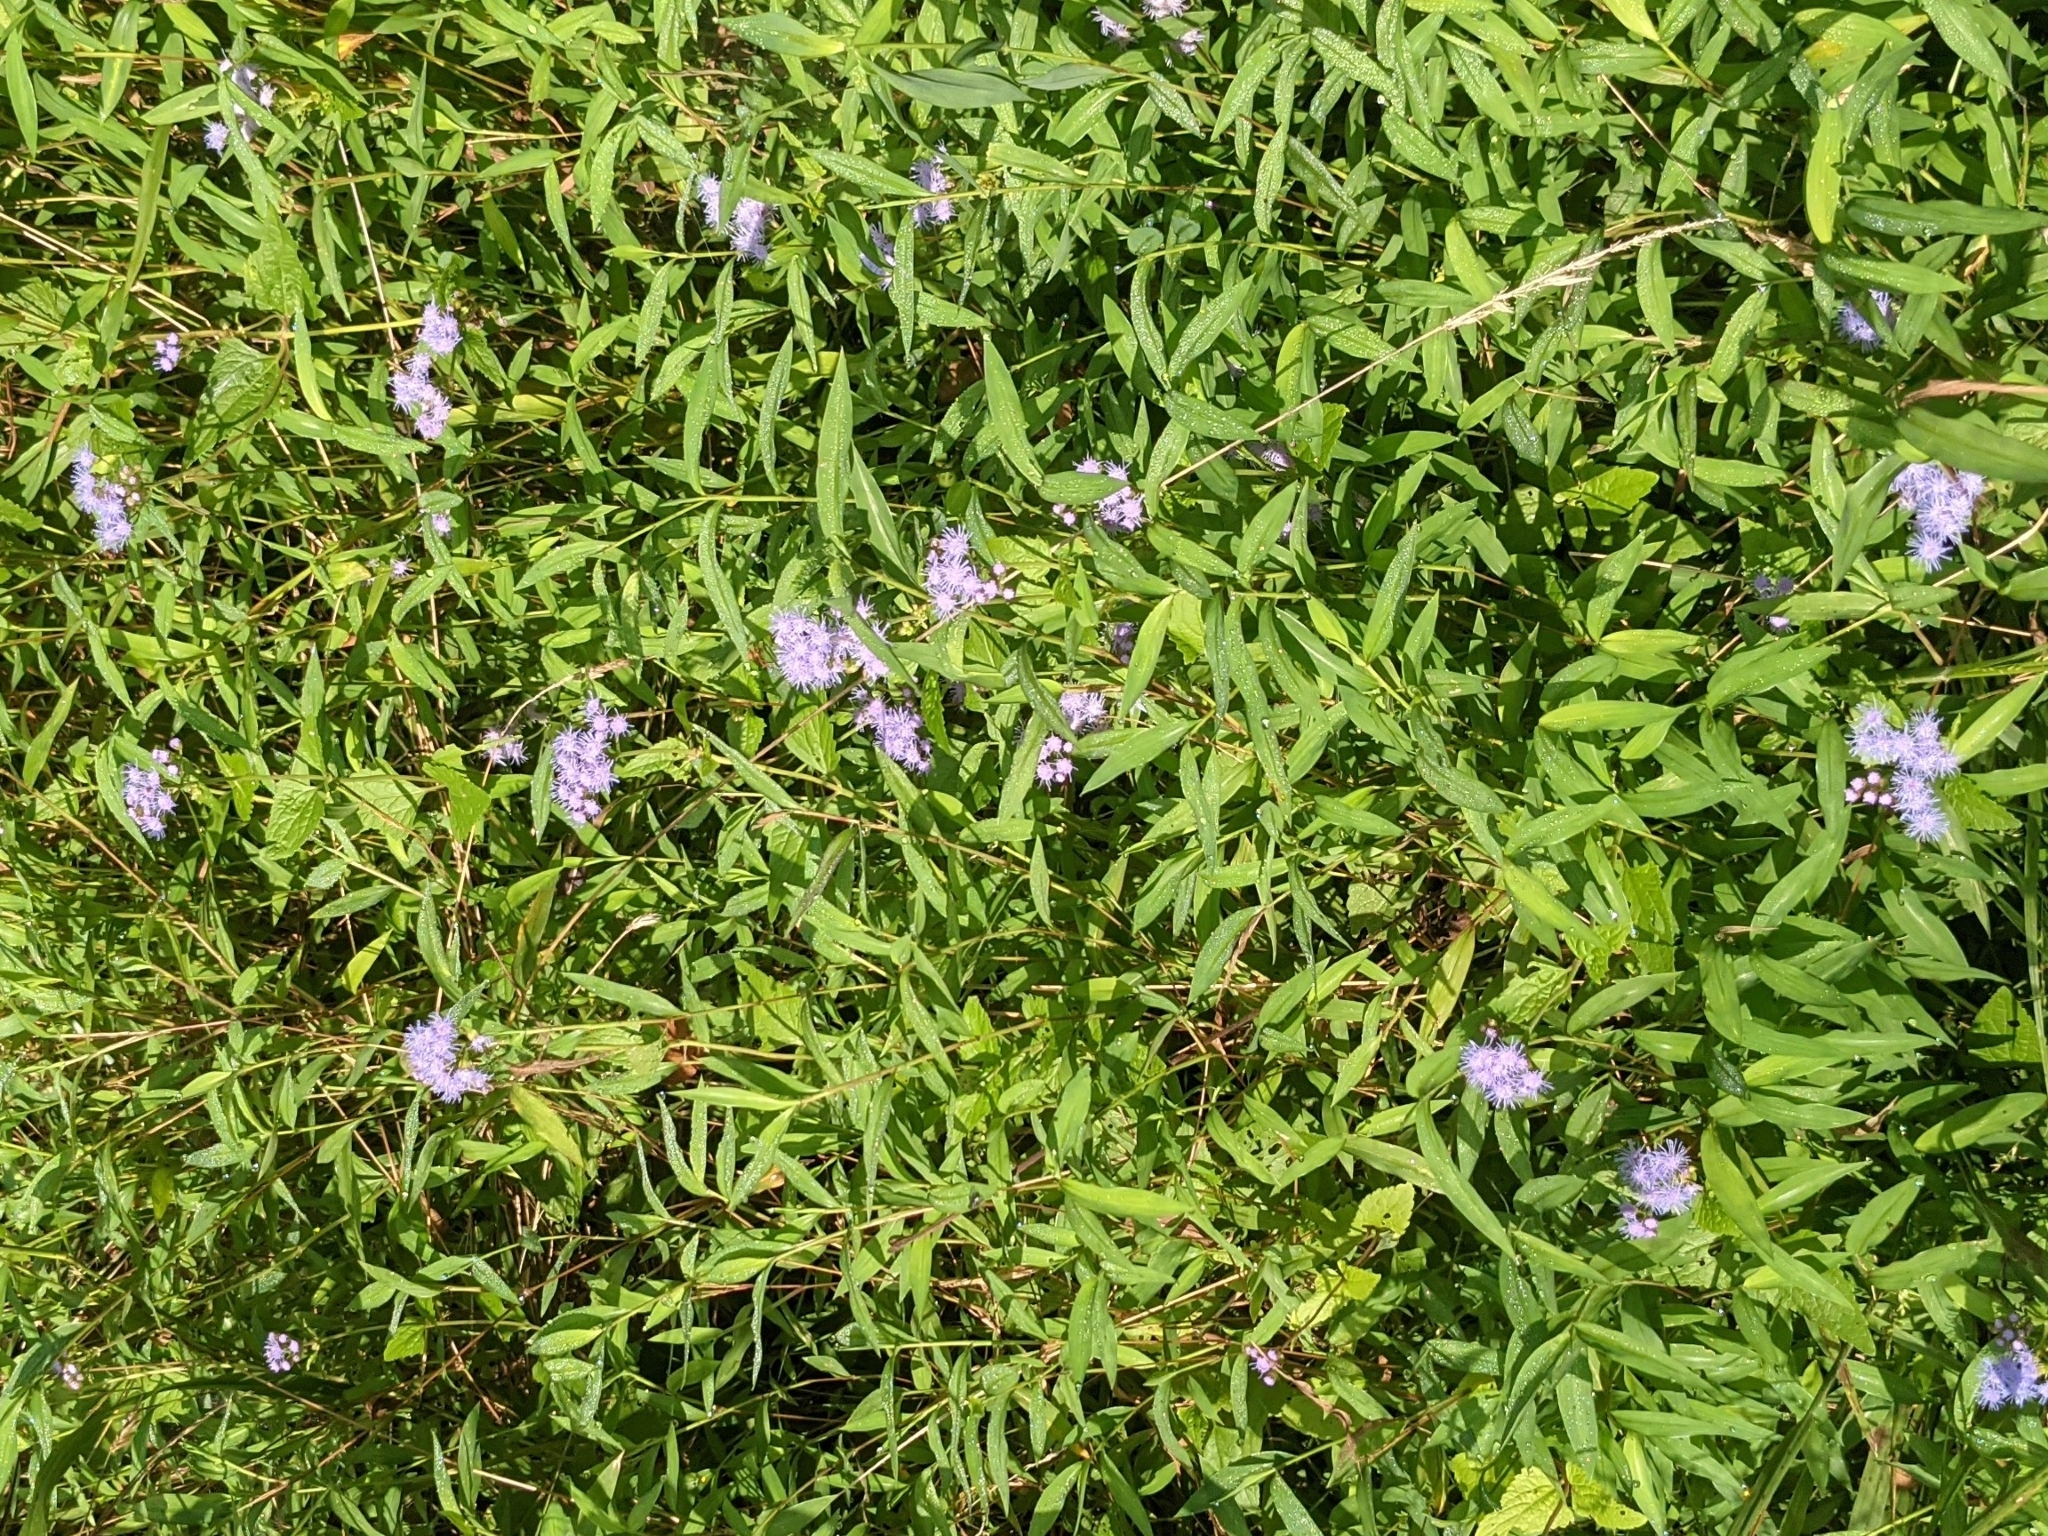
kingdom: Plantae
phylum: Tracheophyta
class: Magnoliopsida
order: Asterales
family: Asteraceae
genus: Conoclinium
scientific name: Conoclinium coelestinum
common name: Blue mistflower
